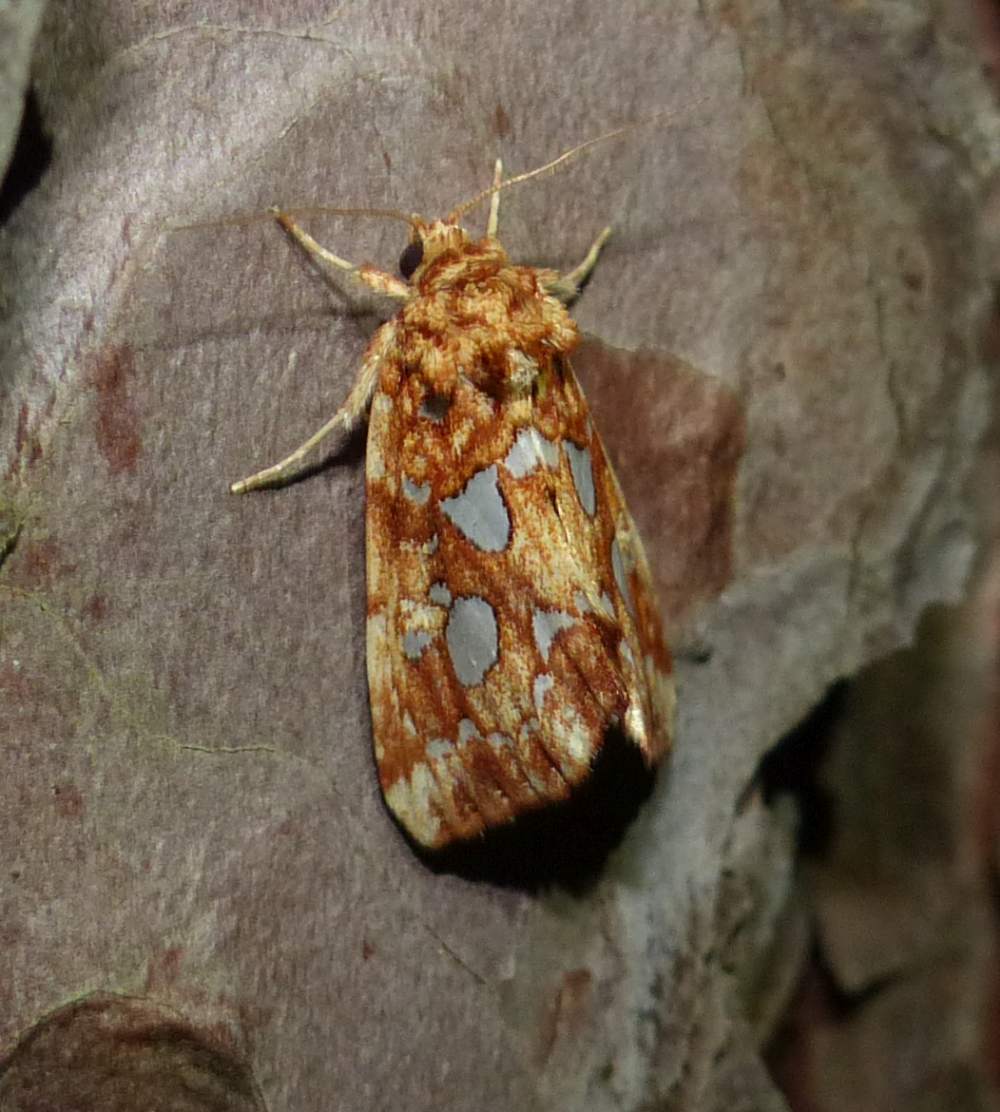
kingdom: Animalia
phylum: Arthropoda
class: Insecta
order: Lepidoptera
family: Noctuidae
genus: Callopistria
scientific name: Callopistria cordata
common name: Silver-spotted fern moth
